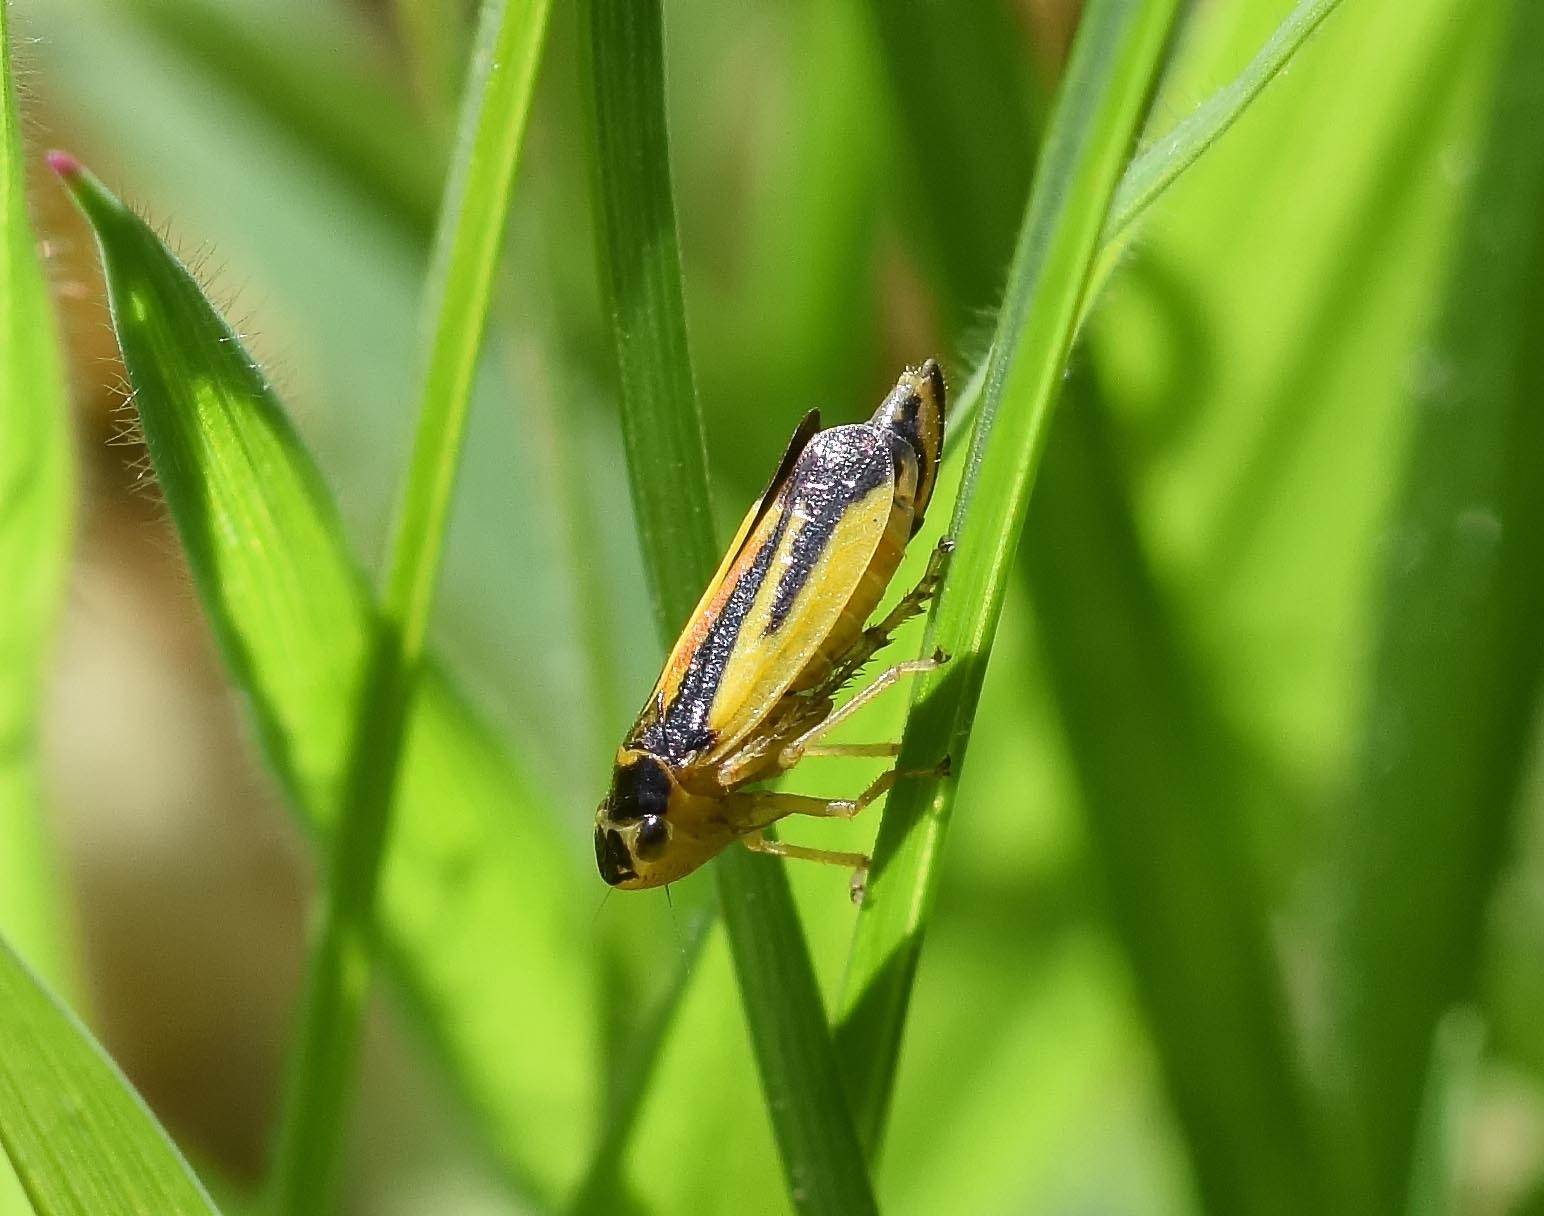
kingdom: Animalia
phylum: Arthropoda
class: Insecta
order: Hemiptera
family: Cicadellidae
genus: Evacanthus
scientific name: Evacanthus interruptus
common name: Leafhopper
